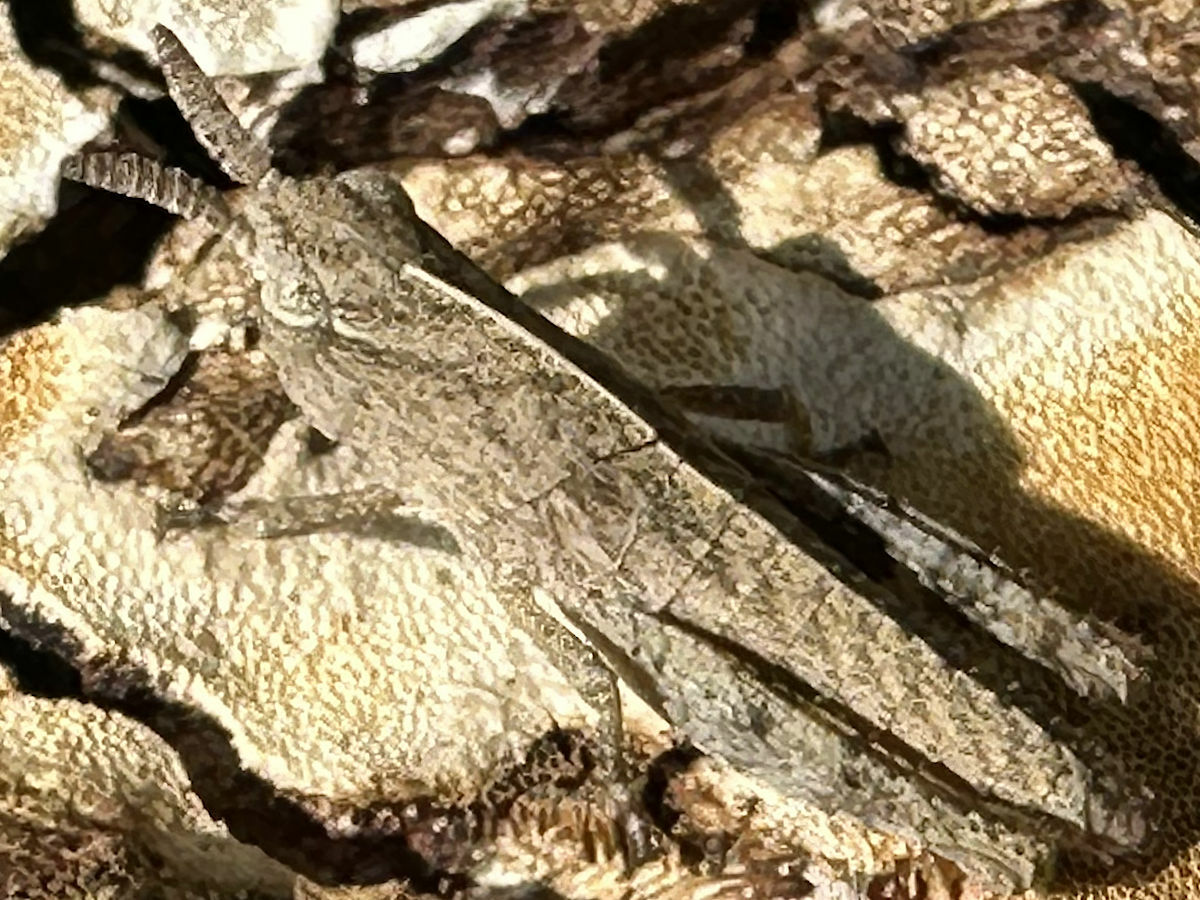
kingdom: Animalia
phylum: Arthropoda
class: Insecta
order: Orthoptera
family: Acrididae
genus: Chortophaga
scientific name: Chortophaga viridifasciata
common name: Green-striped grasshopper
